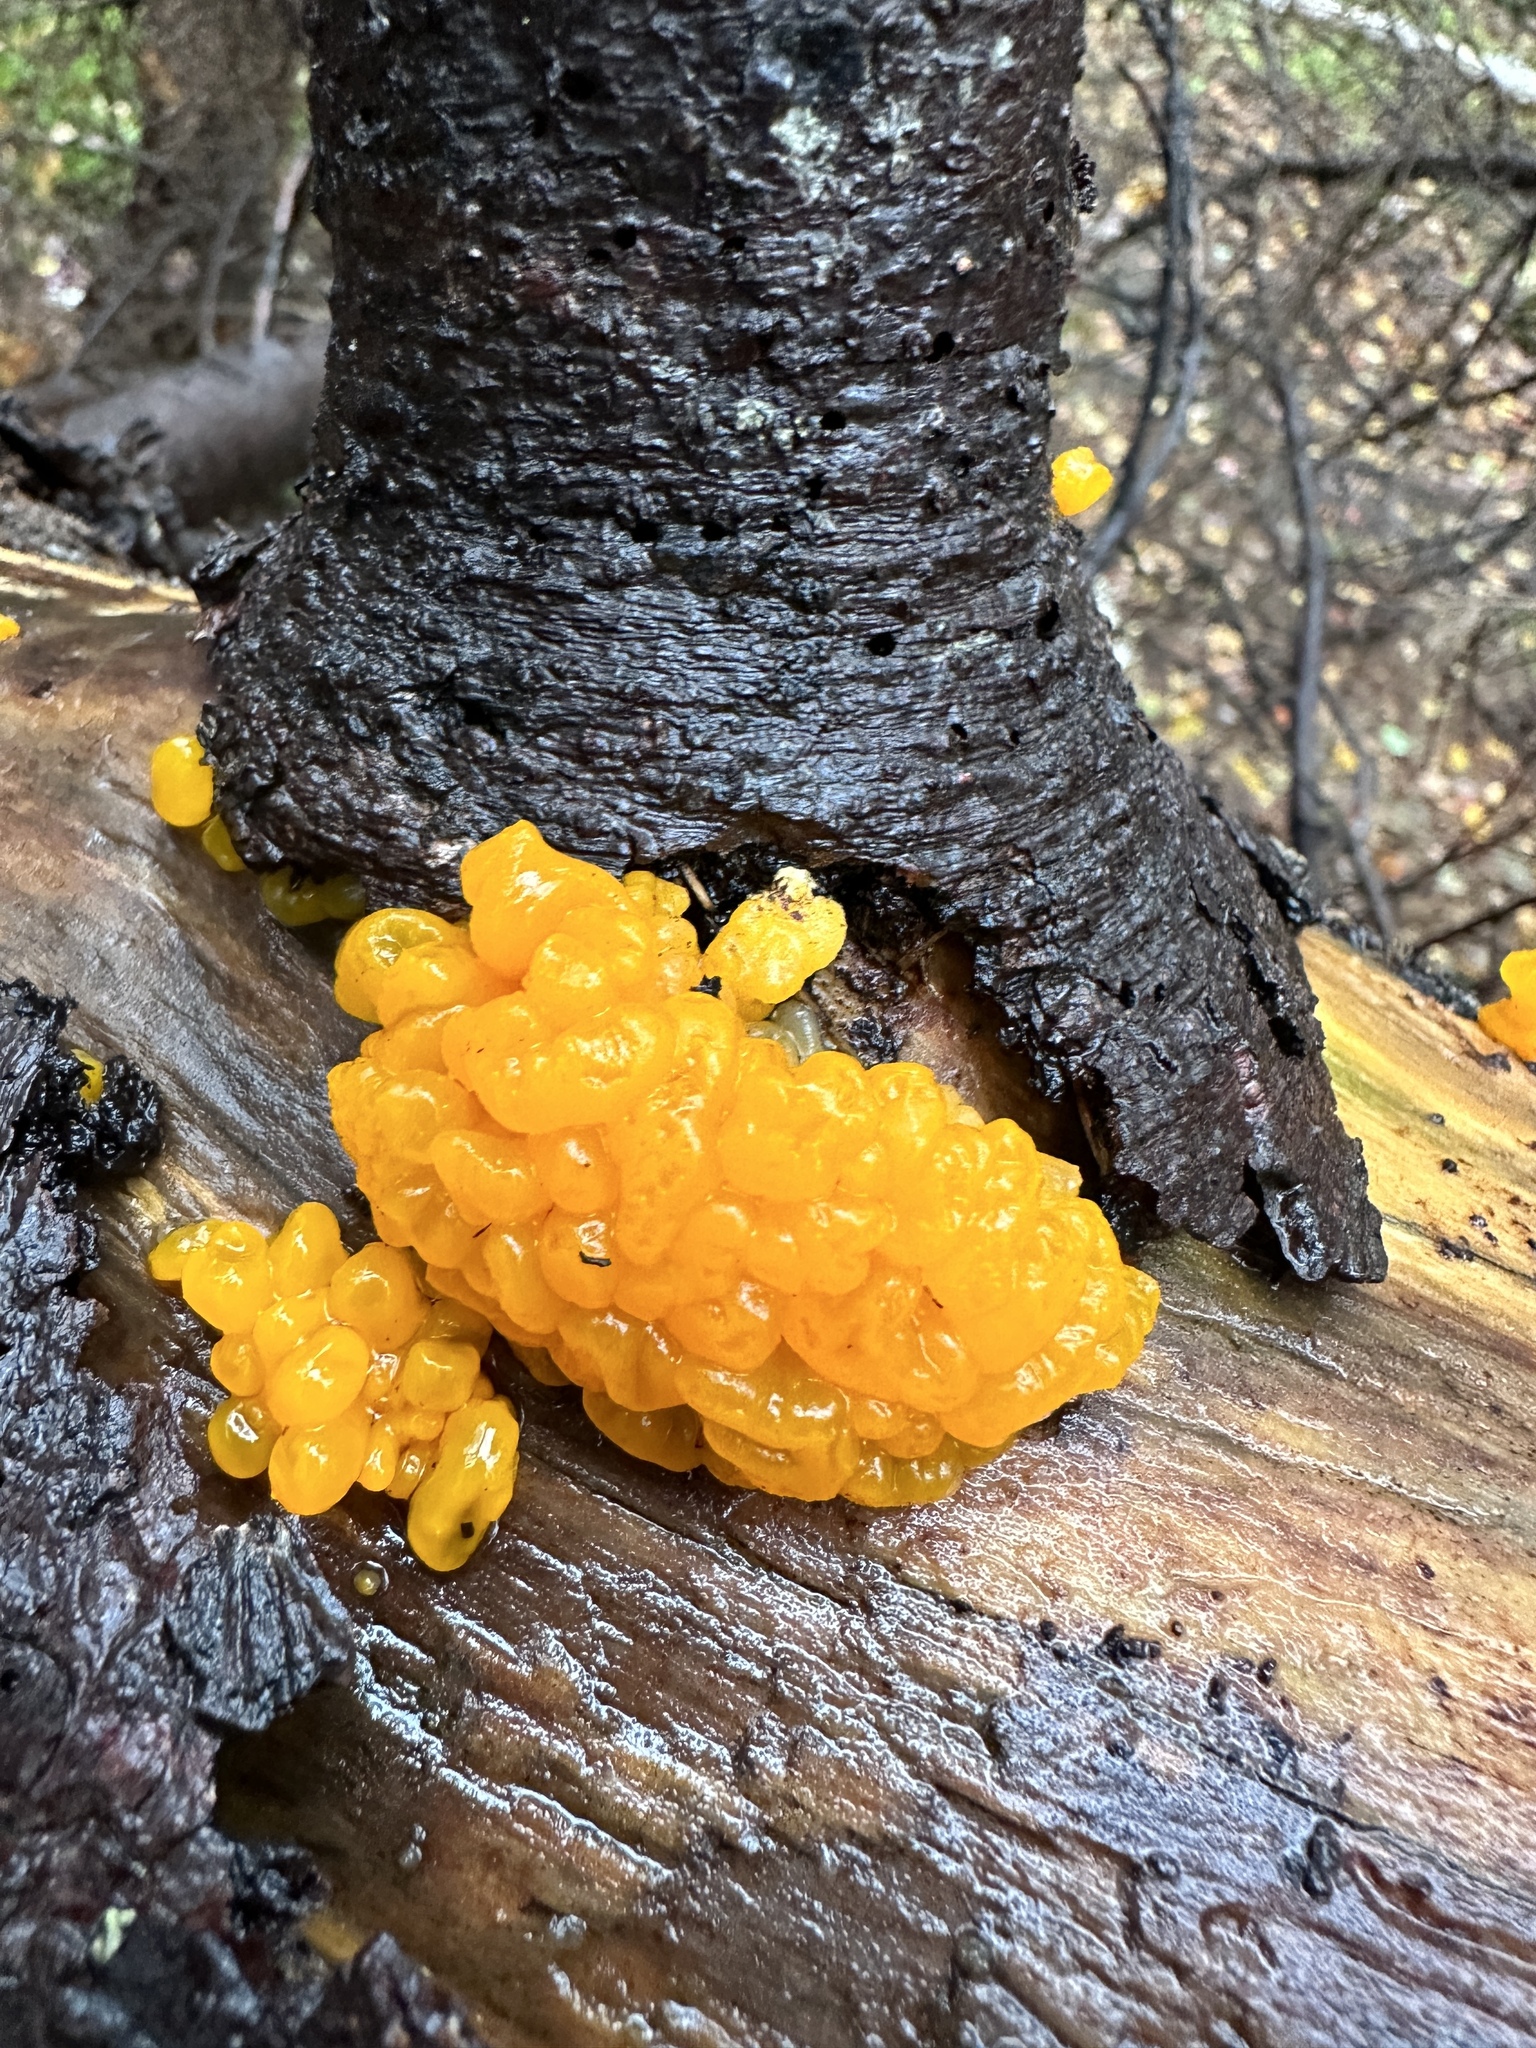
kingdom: Fungi
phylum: Basidiomycota
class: Dacrymycetes
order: Dacrymycetales
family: Dacrymycetaceae
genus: Dacrymyces
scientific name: Dacrymyces chrysospermus
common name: Orange jelly spot
